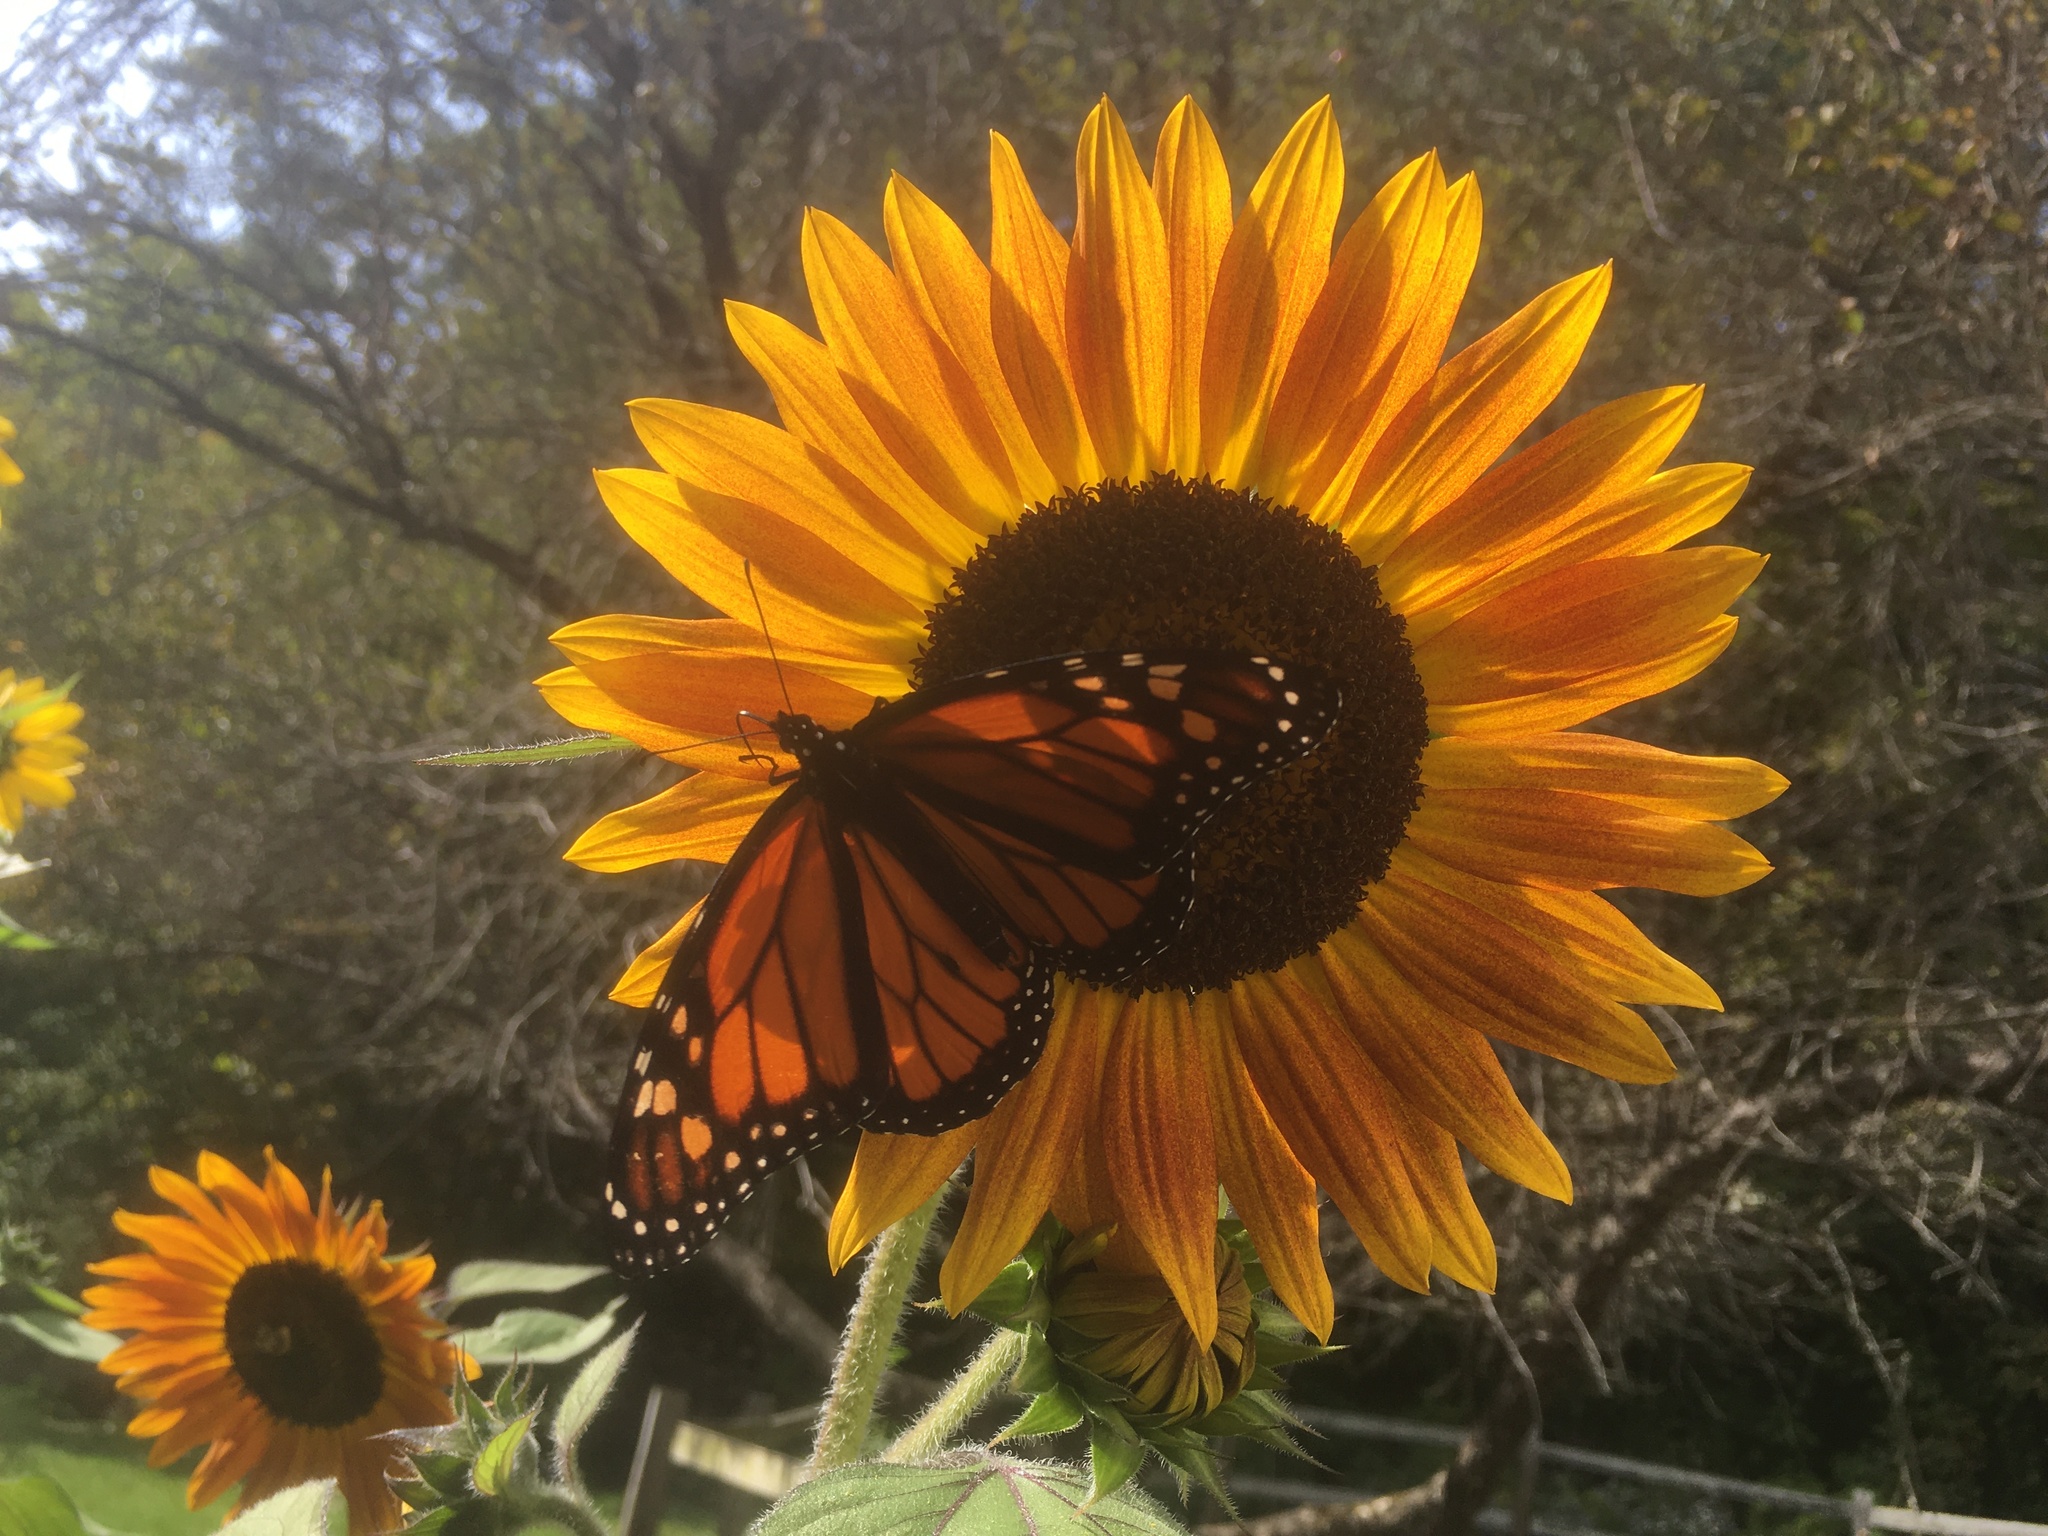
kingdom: Animalia
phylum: Arthropoda
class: Insecta
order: Lepidoptera
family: Nymphalidae
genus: Danaus
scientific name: Danaus plexippus
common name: Monarch
